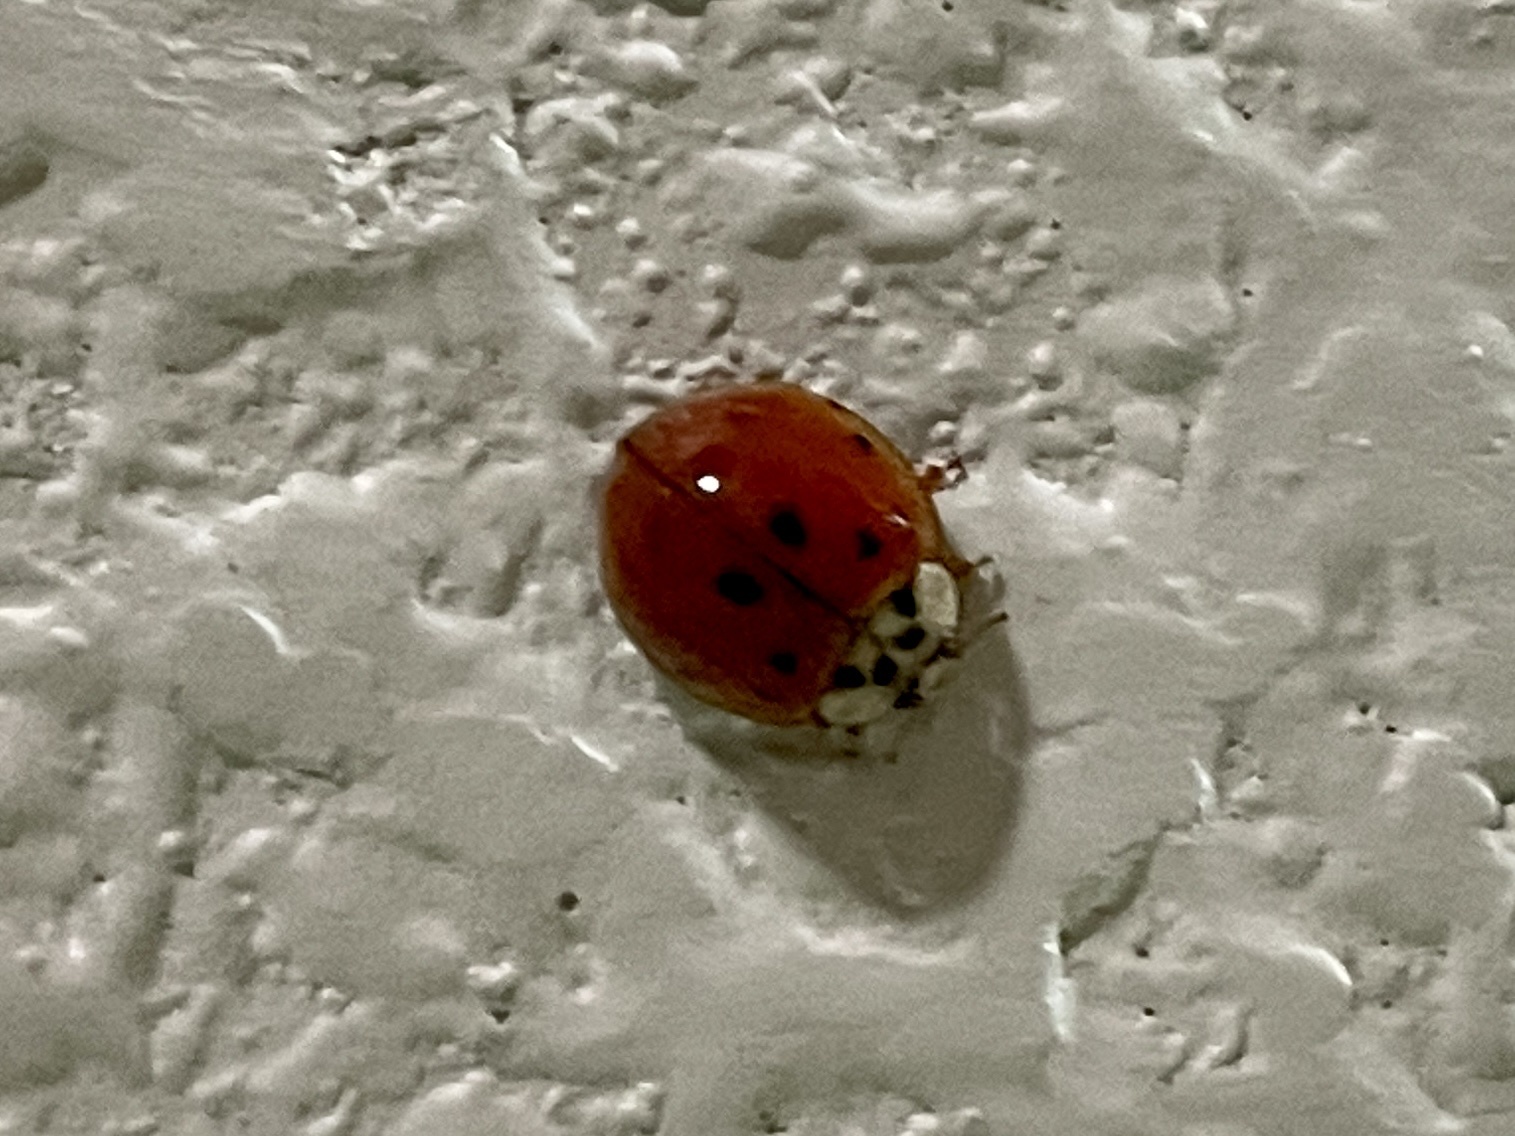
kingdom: Animalia
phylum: Arthropoda
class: Insecta
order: Coleoptera
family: Coccinellidae
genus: Harmonia
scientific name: Harmonia axyridis
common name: Harlequin ladybird
